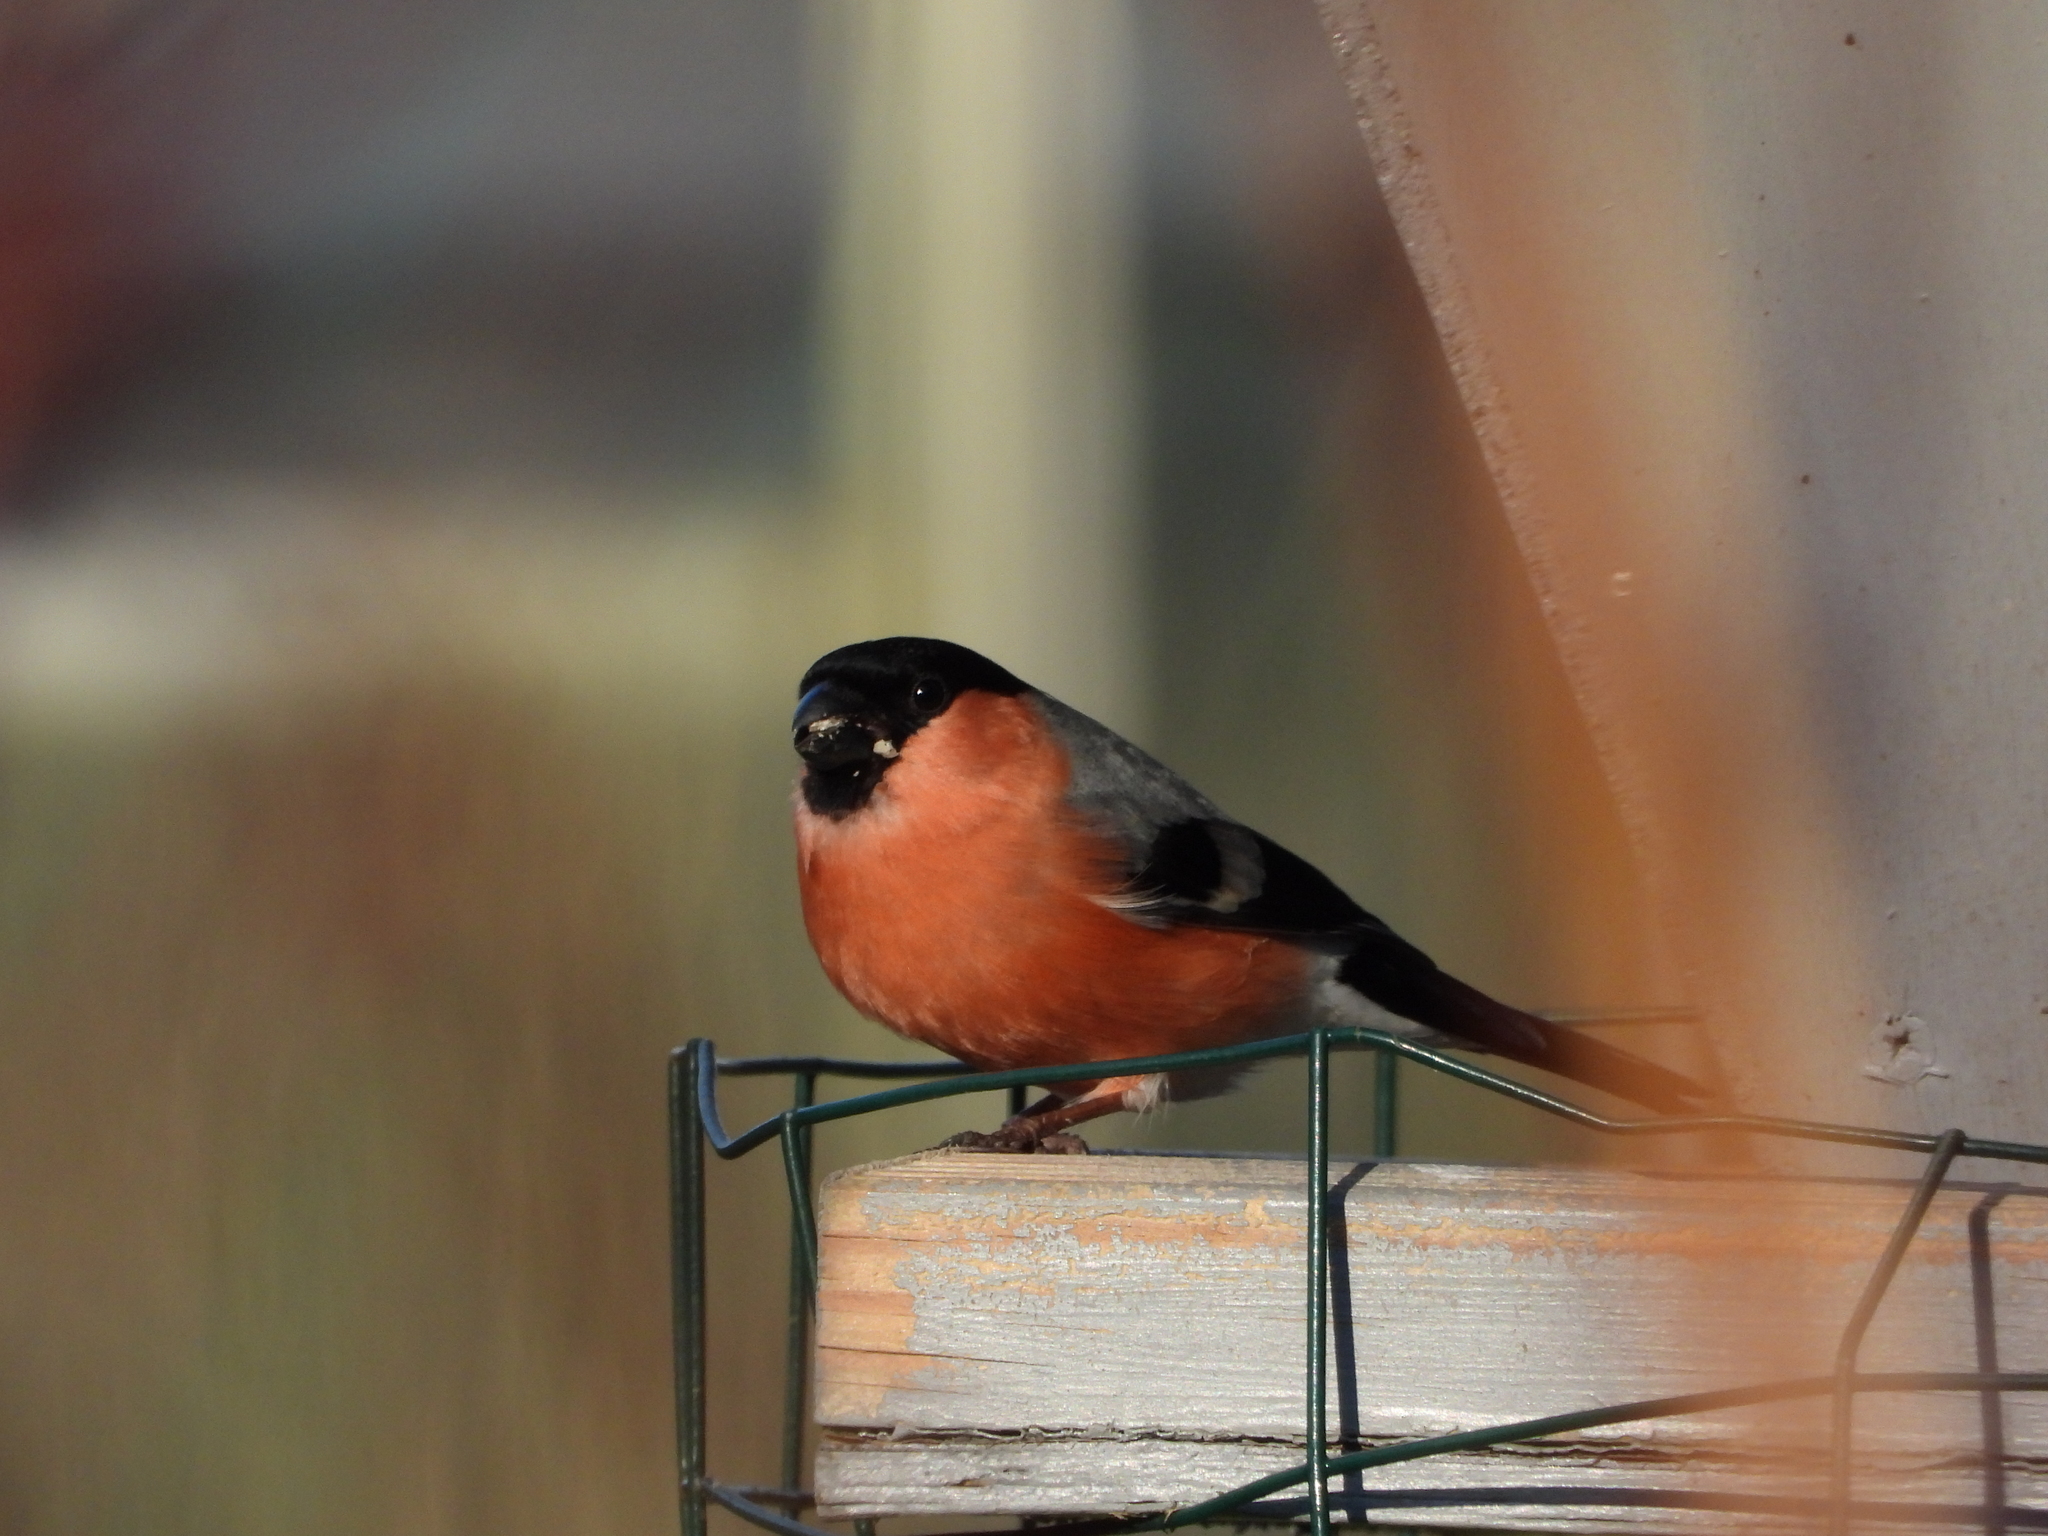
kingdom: Animalia
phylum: Chordata
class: Aves
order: Passeriformes
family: Fringillidae
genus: Pyrrhula
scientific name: Pyrrhula pyrrhula
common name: Eurasian bullfinch
